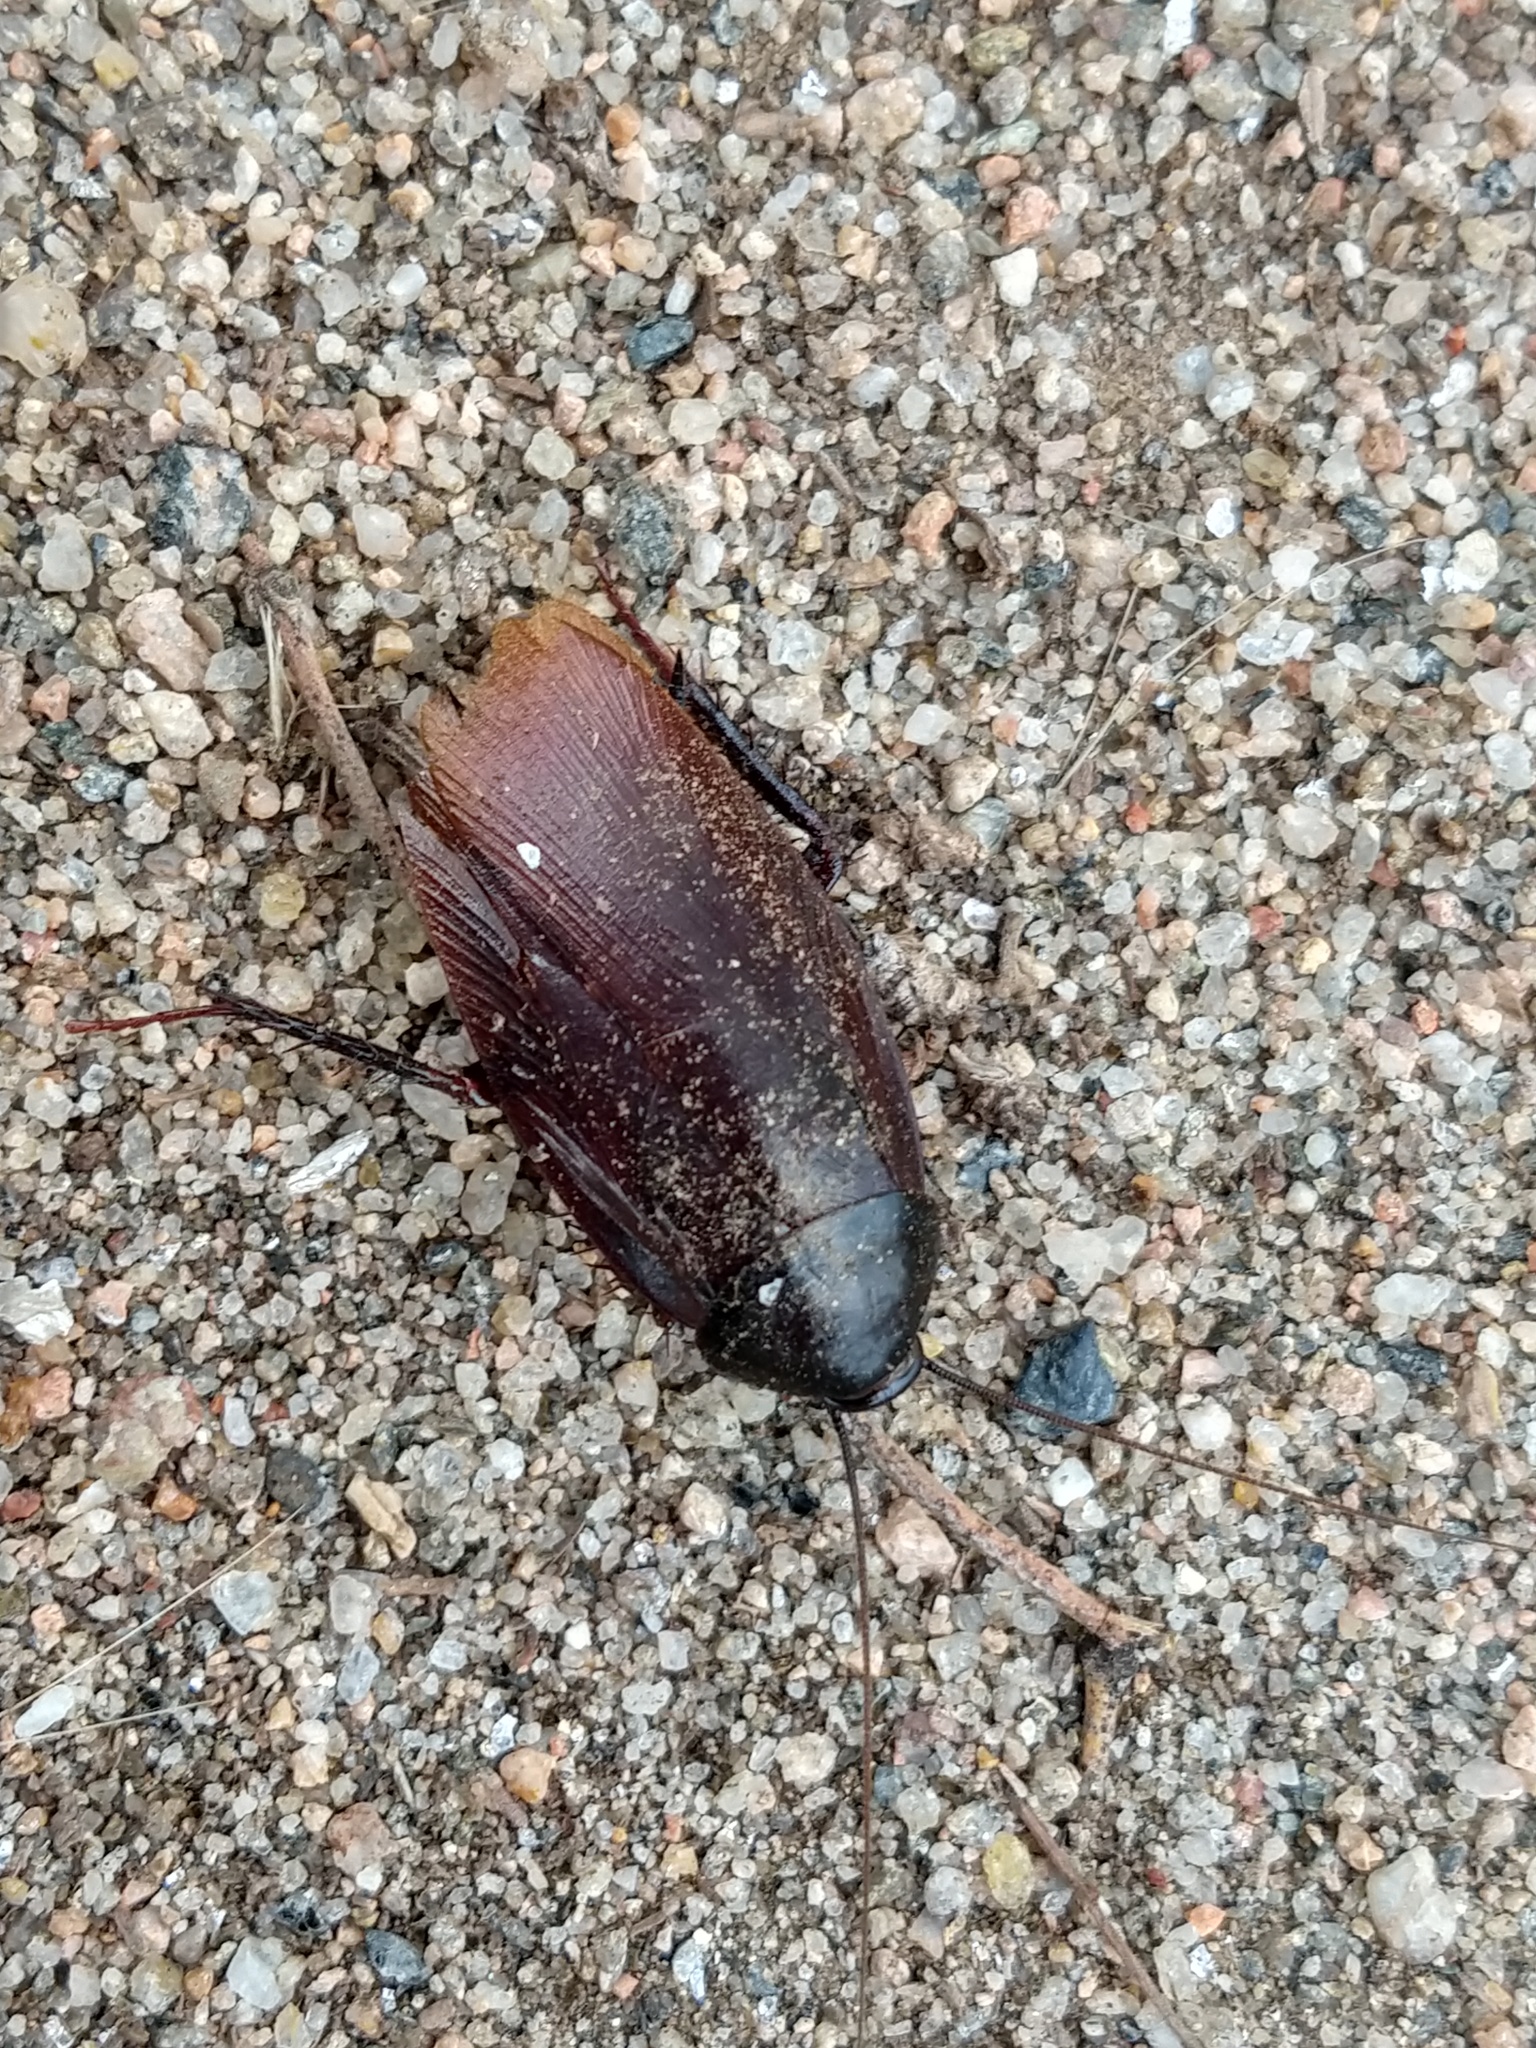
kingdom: Animalia
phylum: Arthropoda
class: Insecta
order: Blattodea
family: Blattidae
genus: Periplaneta
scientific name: Periplaneta fuliginosa
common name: Smokeybrown cockroad
